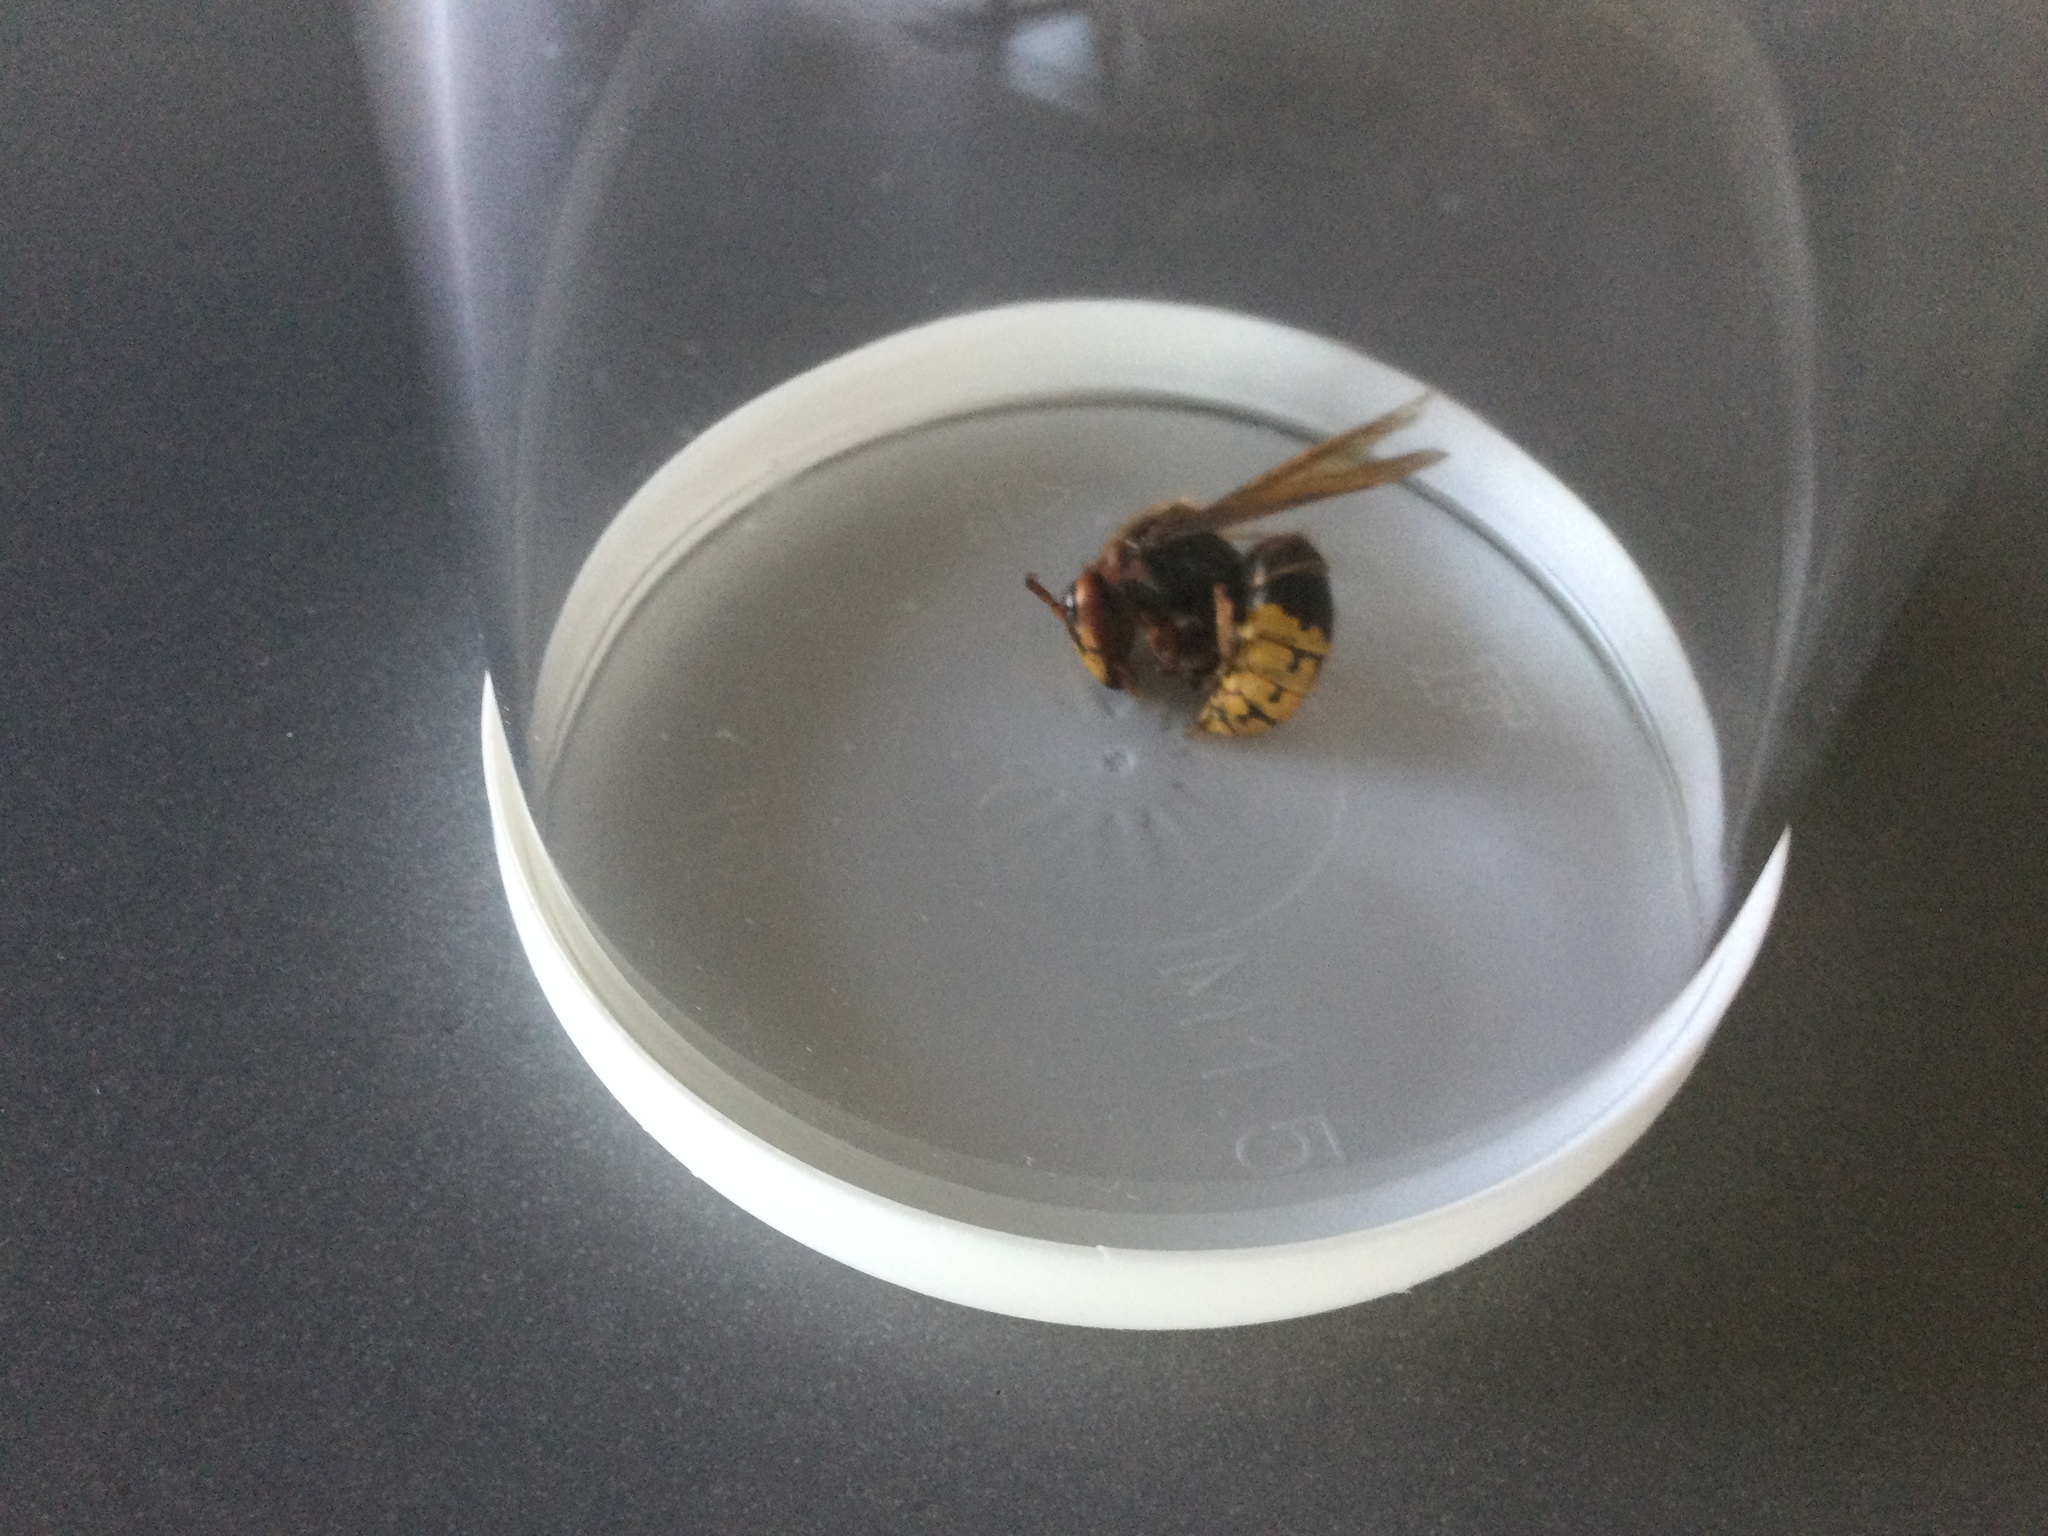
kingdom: Animalia
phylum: Arthropoda
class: Insecta
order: Hymenoptera
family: Vespidae
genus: Vespa
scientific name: Vespa crabro
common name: Hornet
